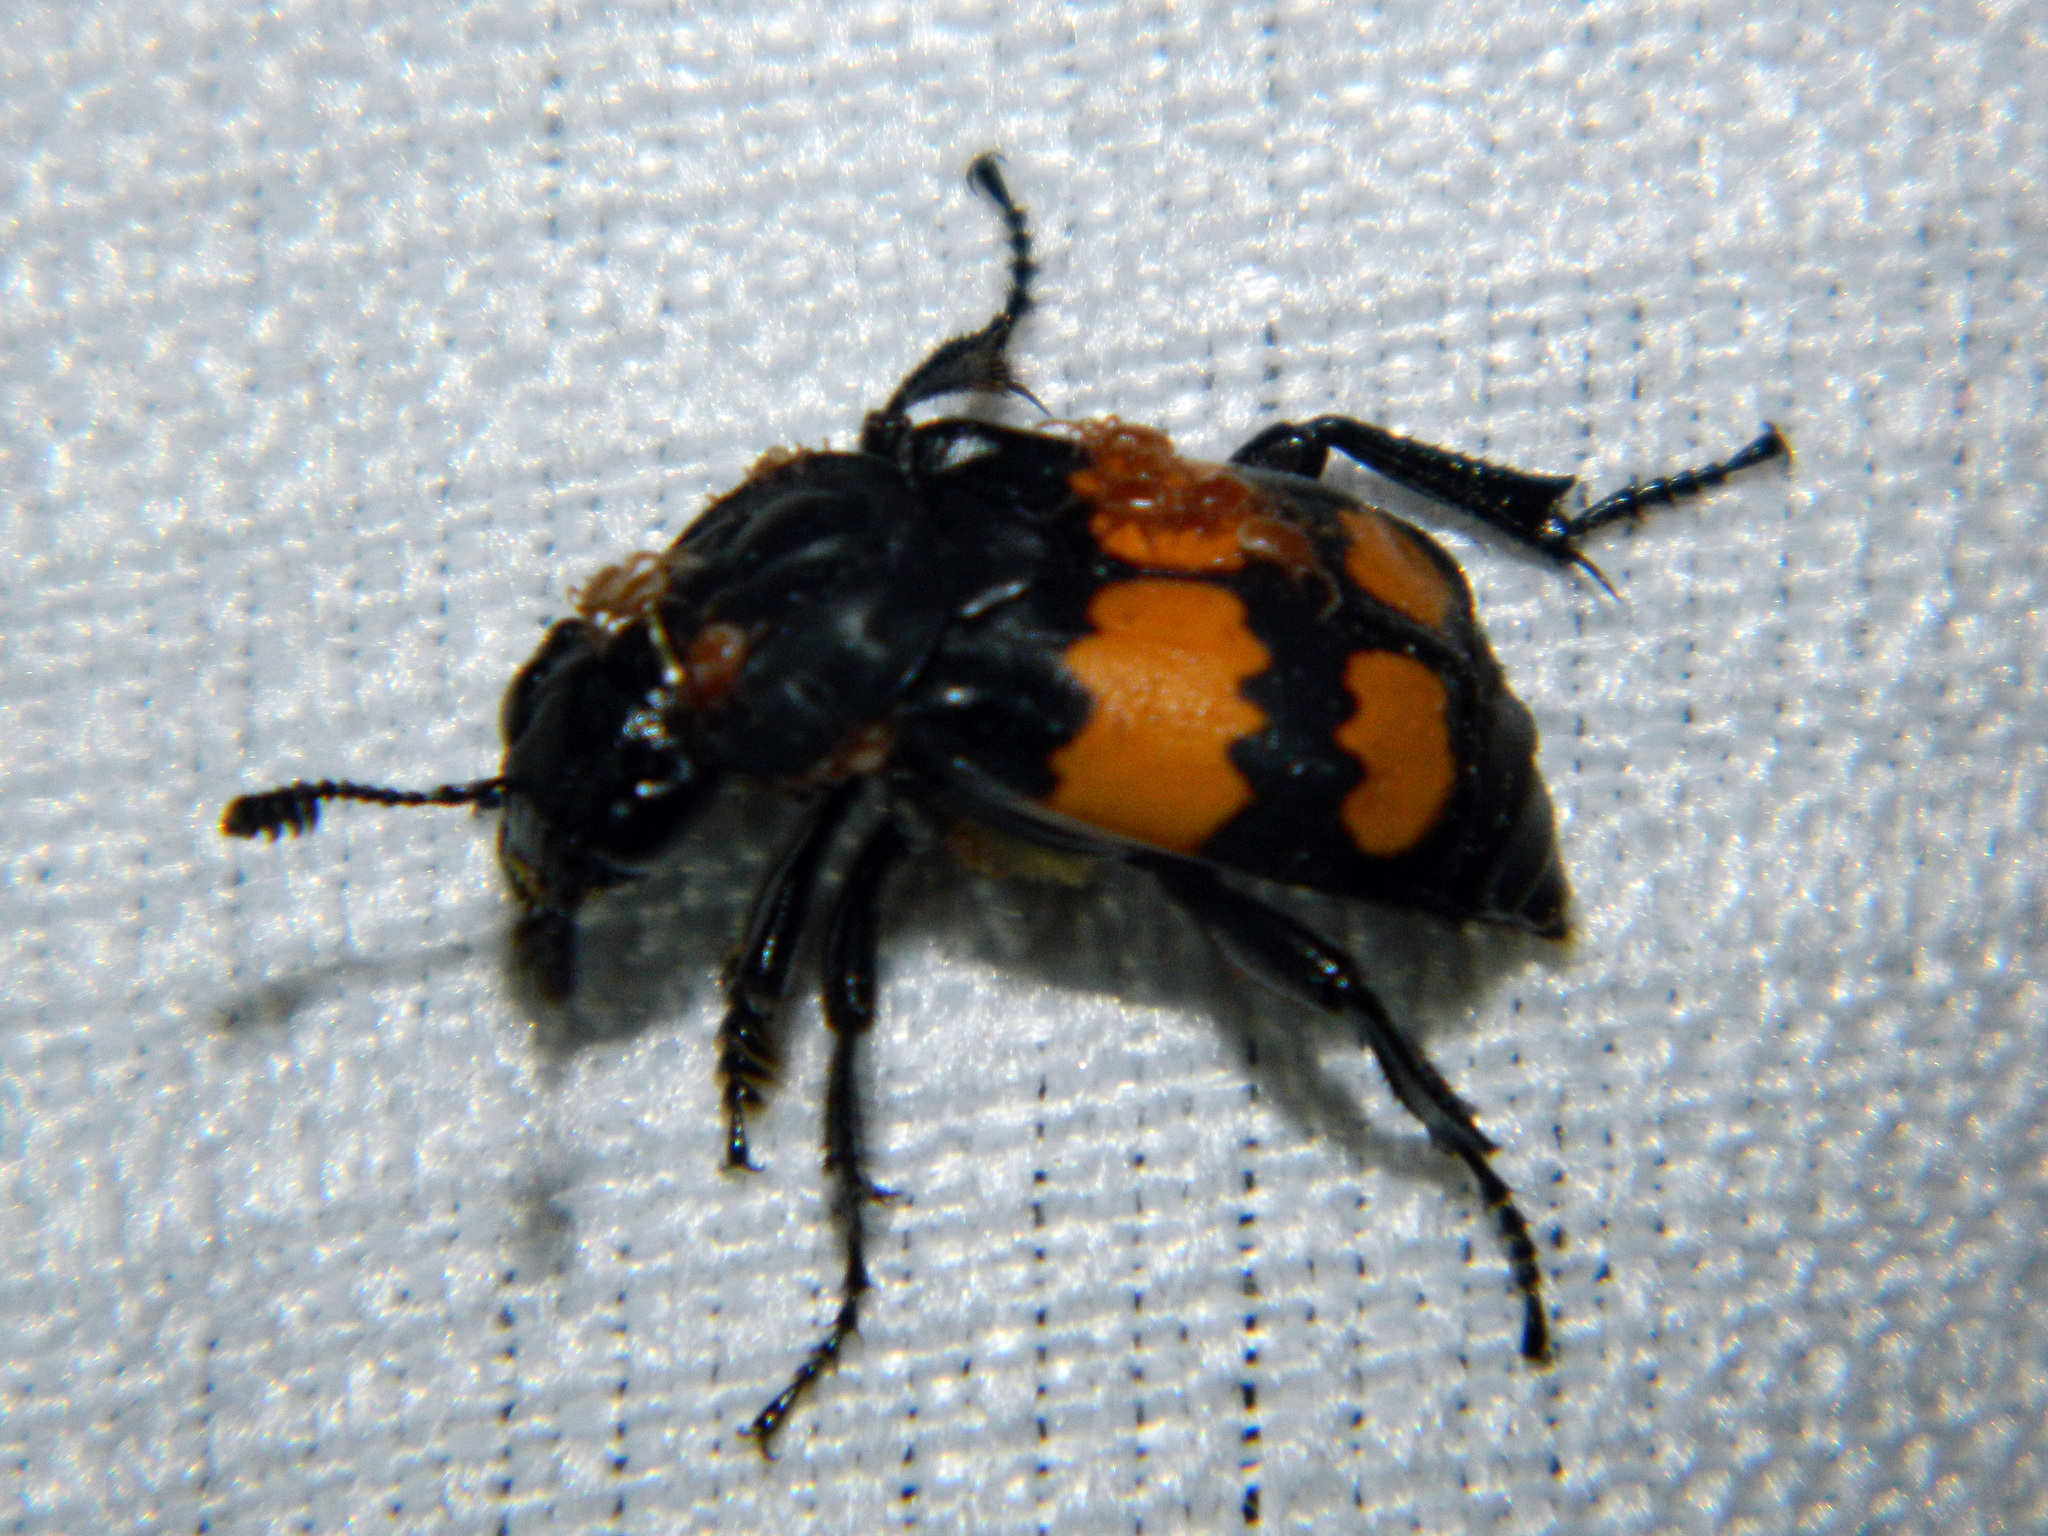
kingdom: Animalia
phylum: Arthropoda
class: Insecta
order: Coleoptera
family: Staphylinidae
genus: Nicrophorus
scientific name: Nicrophorus defodiens
